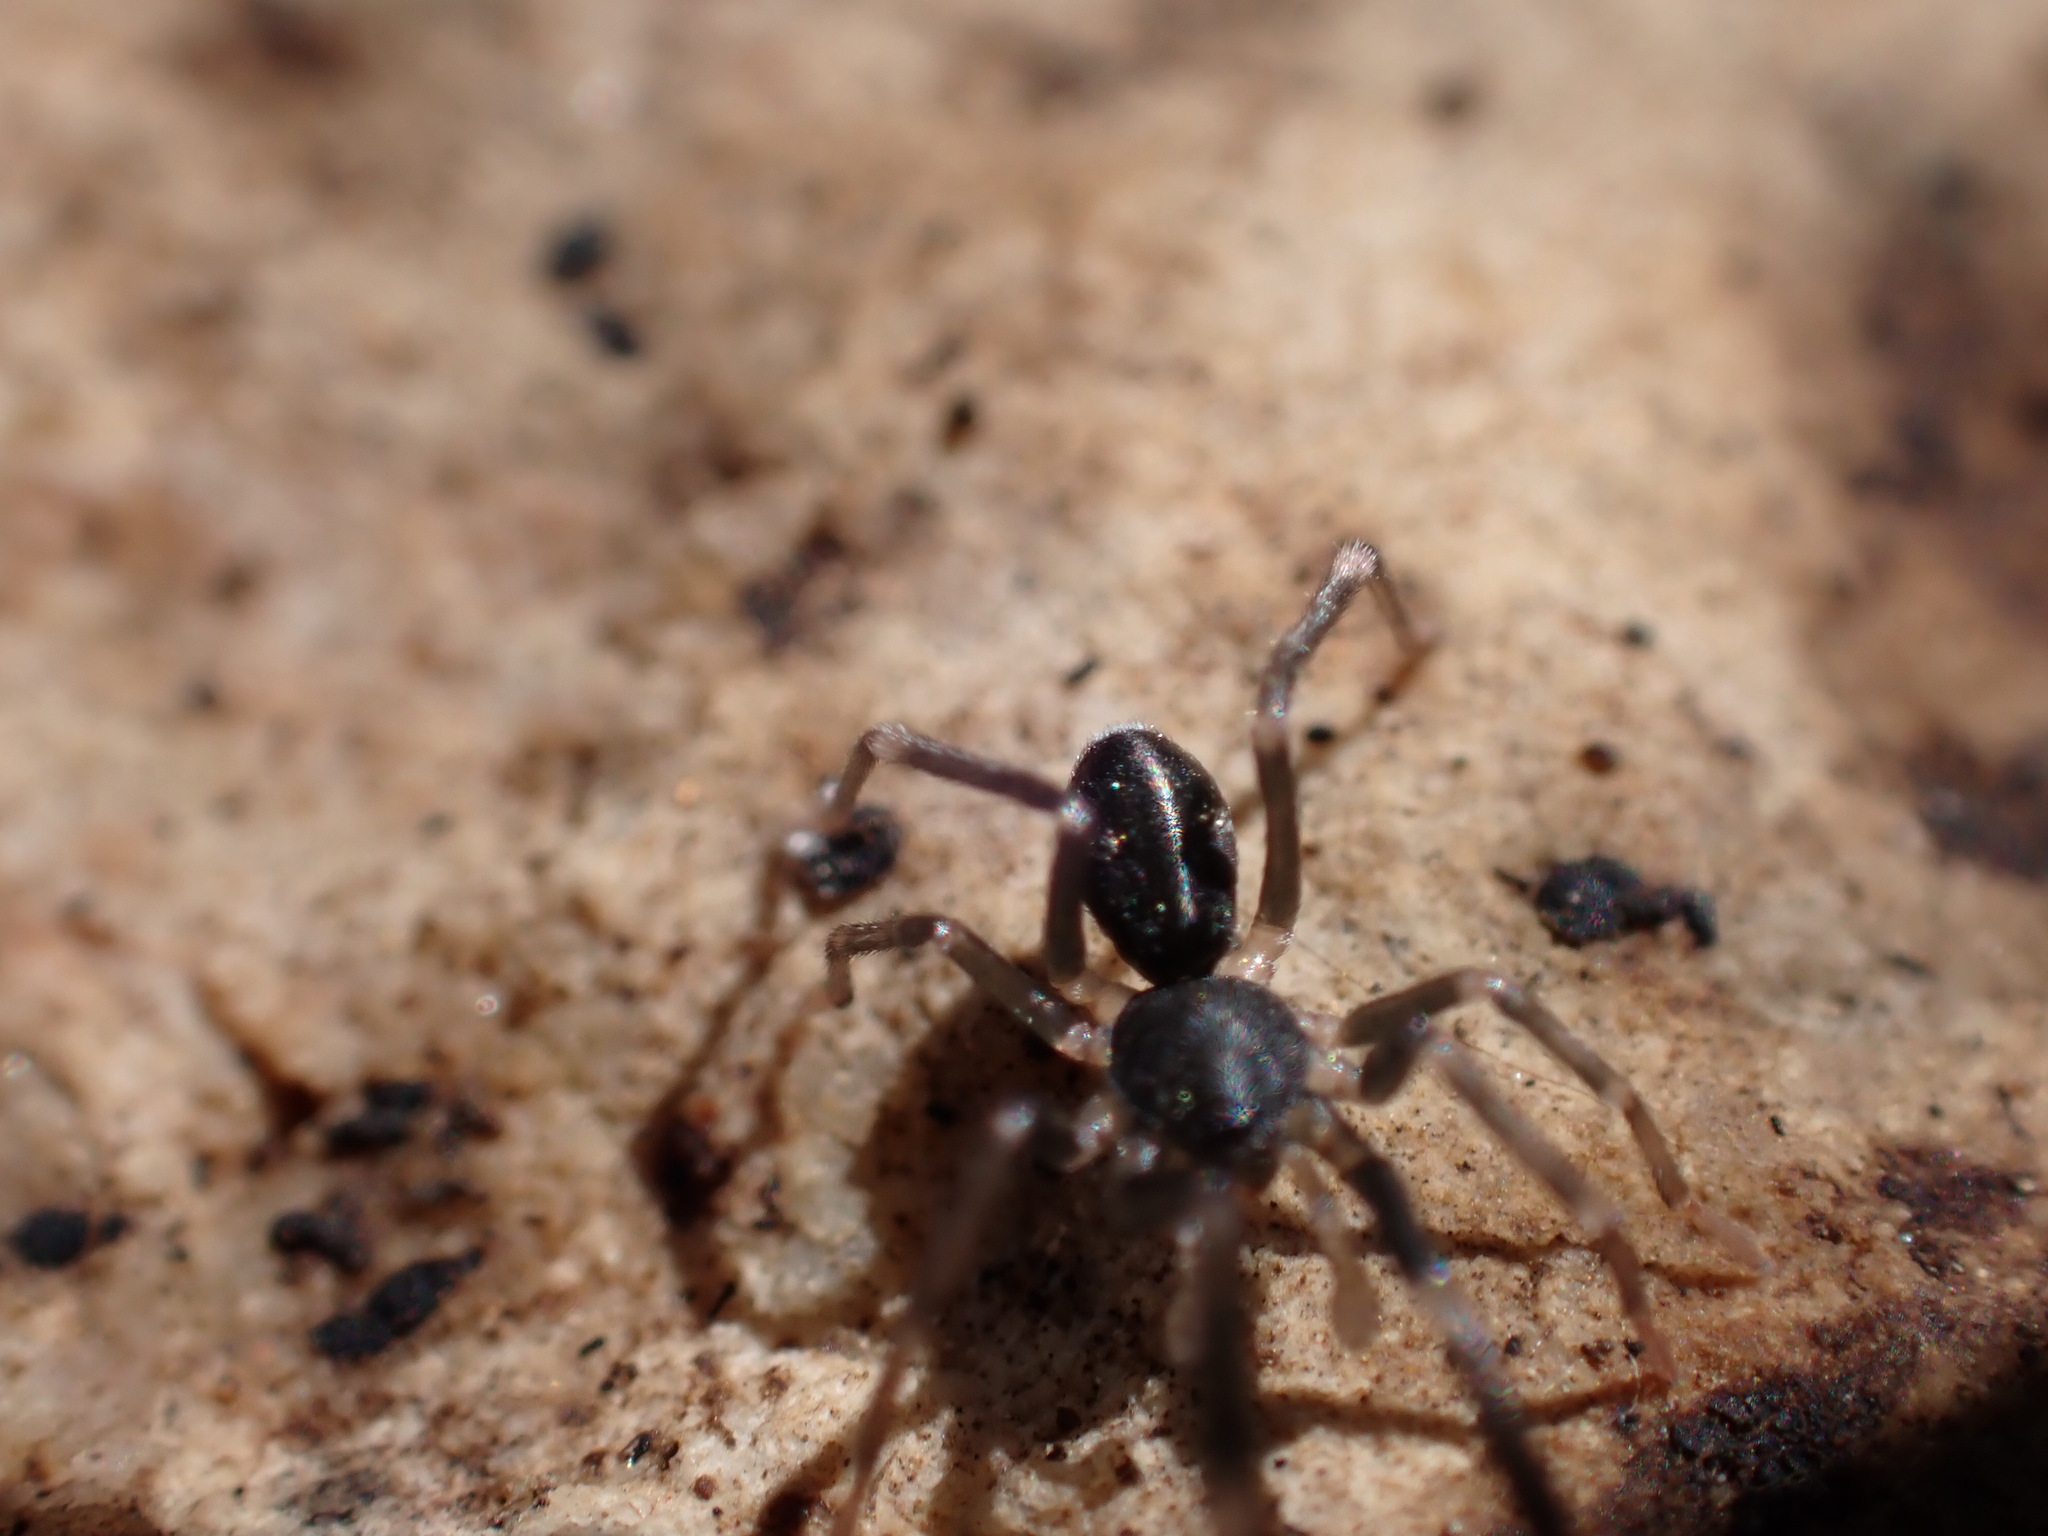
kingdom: Animalia
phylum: Arthropoda
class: Arachnida
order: Araneae
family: Phrurolithidae
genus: Liophrurillus
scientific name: Liophrurillus flavitarsis
